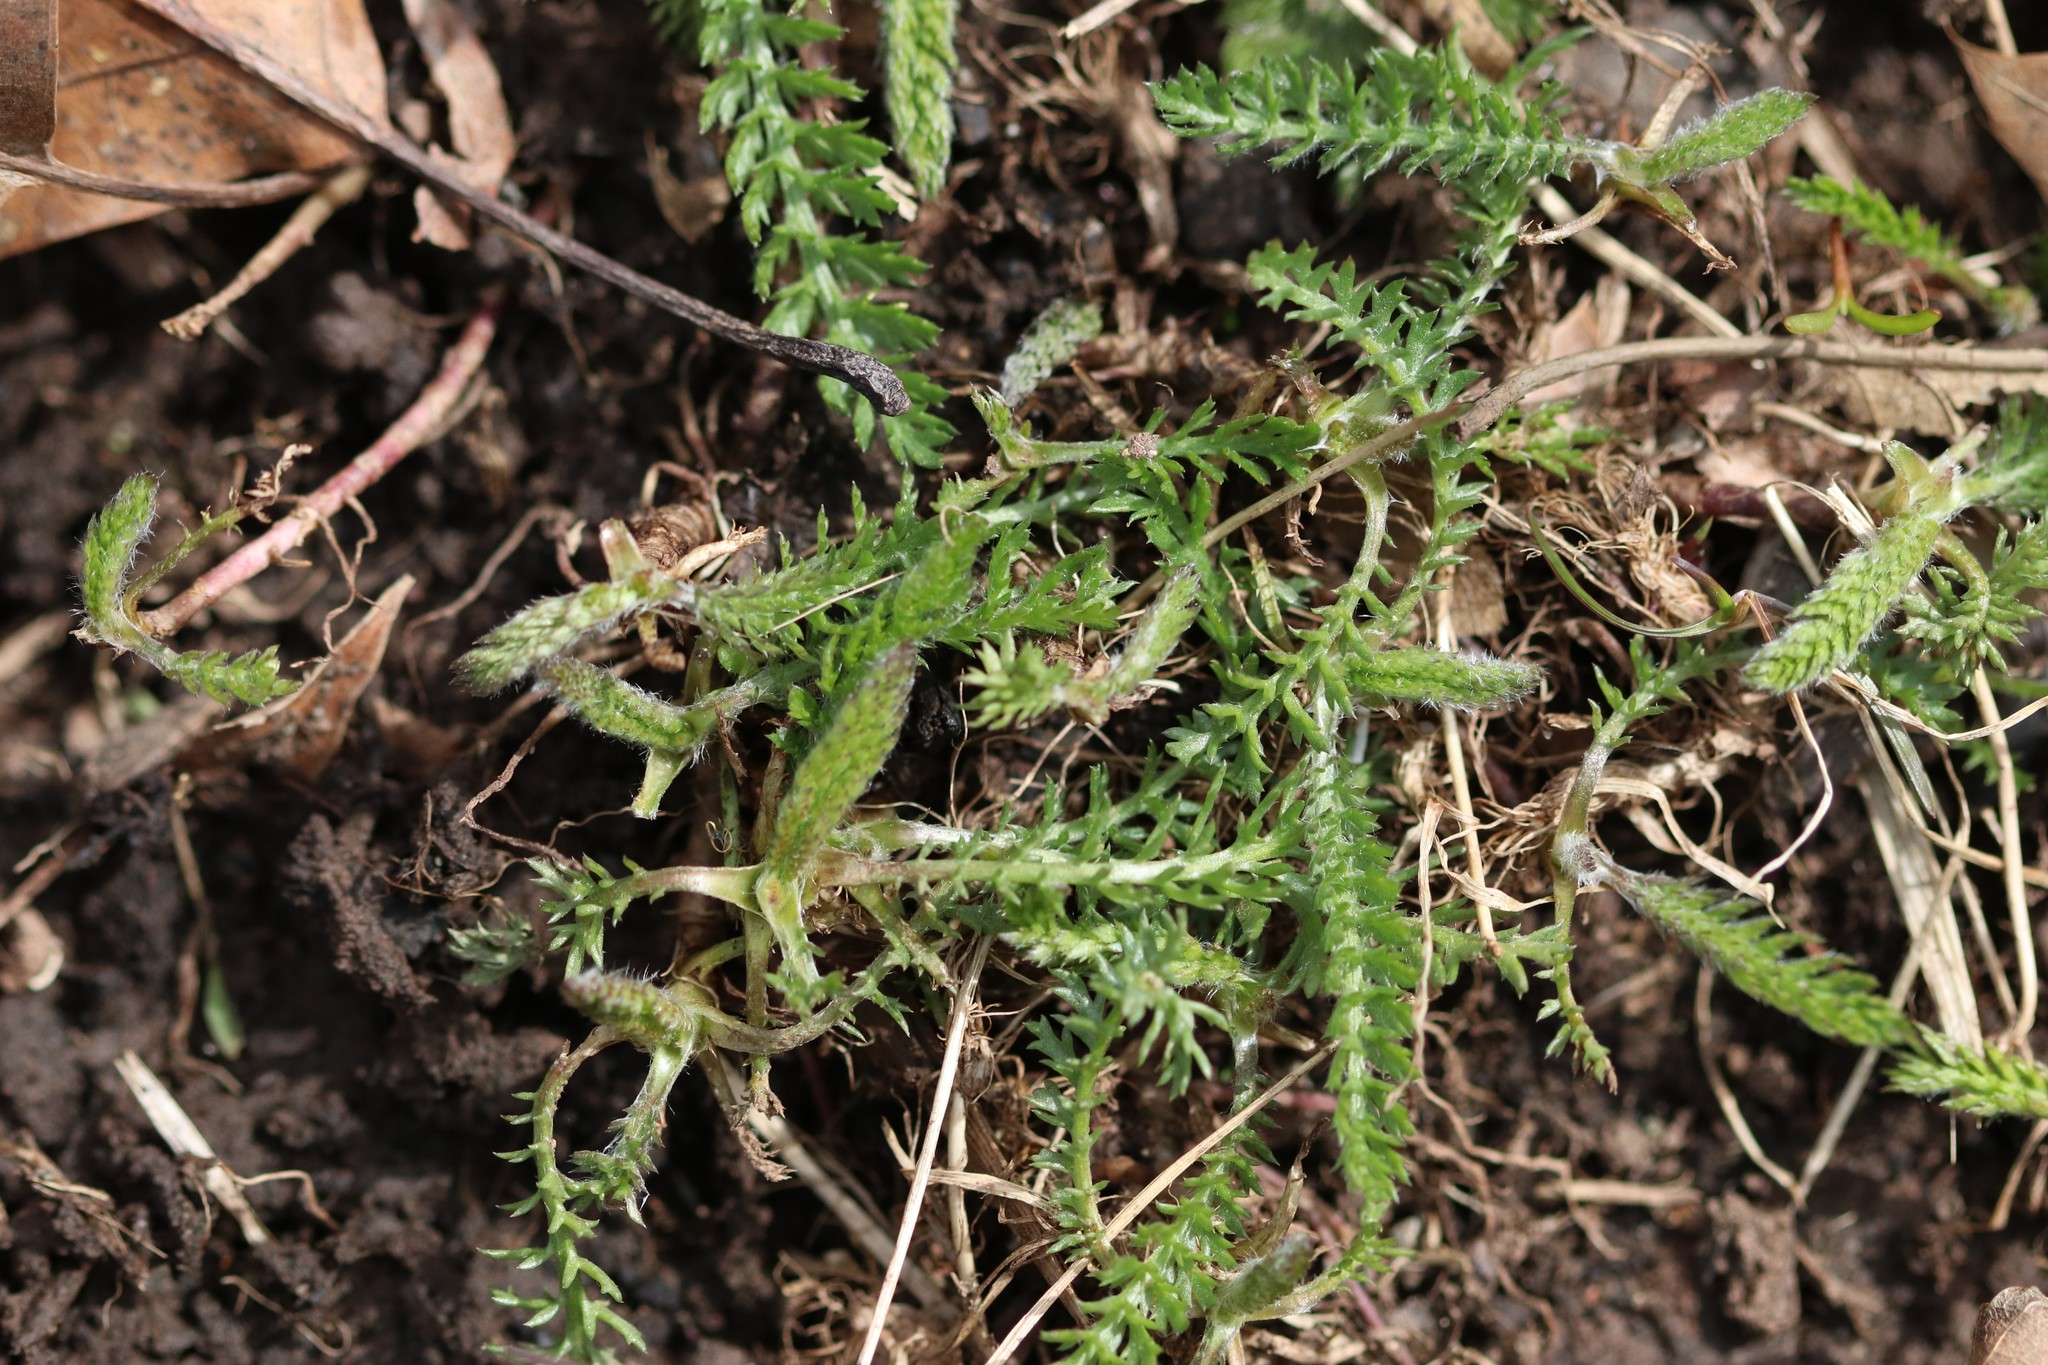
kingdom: Plantae
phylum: Tracheophyta
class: Magnoliopsida
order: Asterales
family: Asteraceae
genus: Achillea
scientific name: Achillea millefolium
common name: Yarrow
